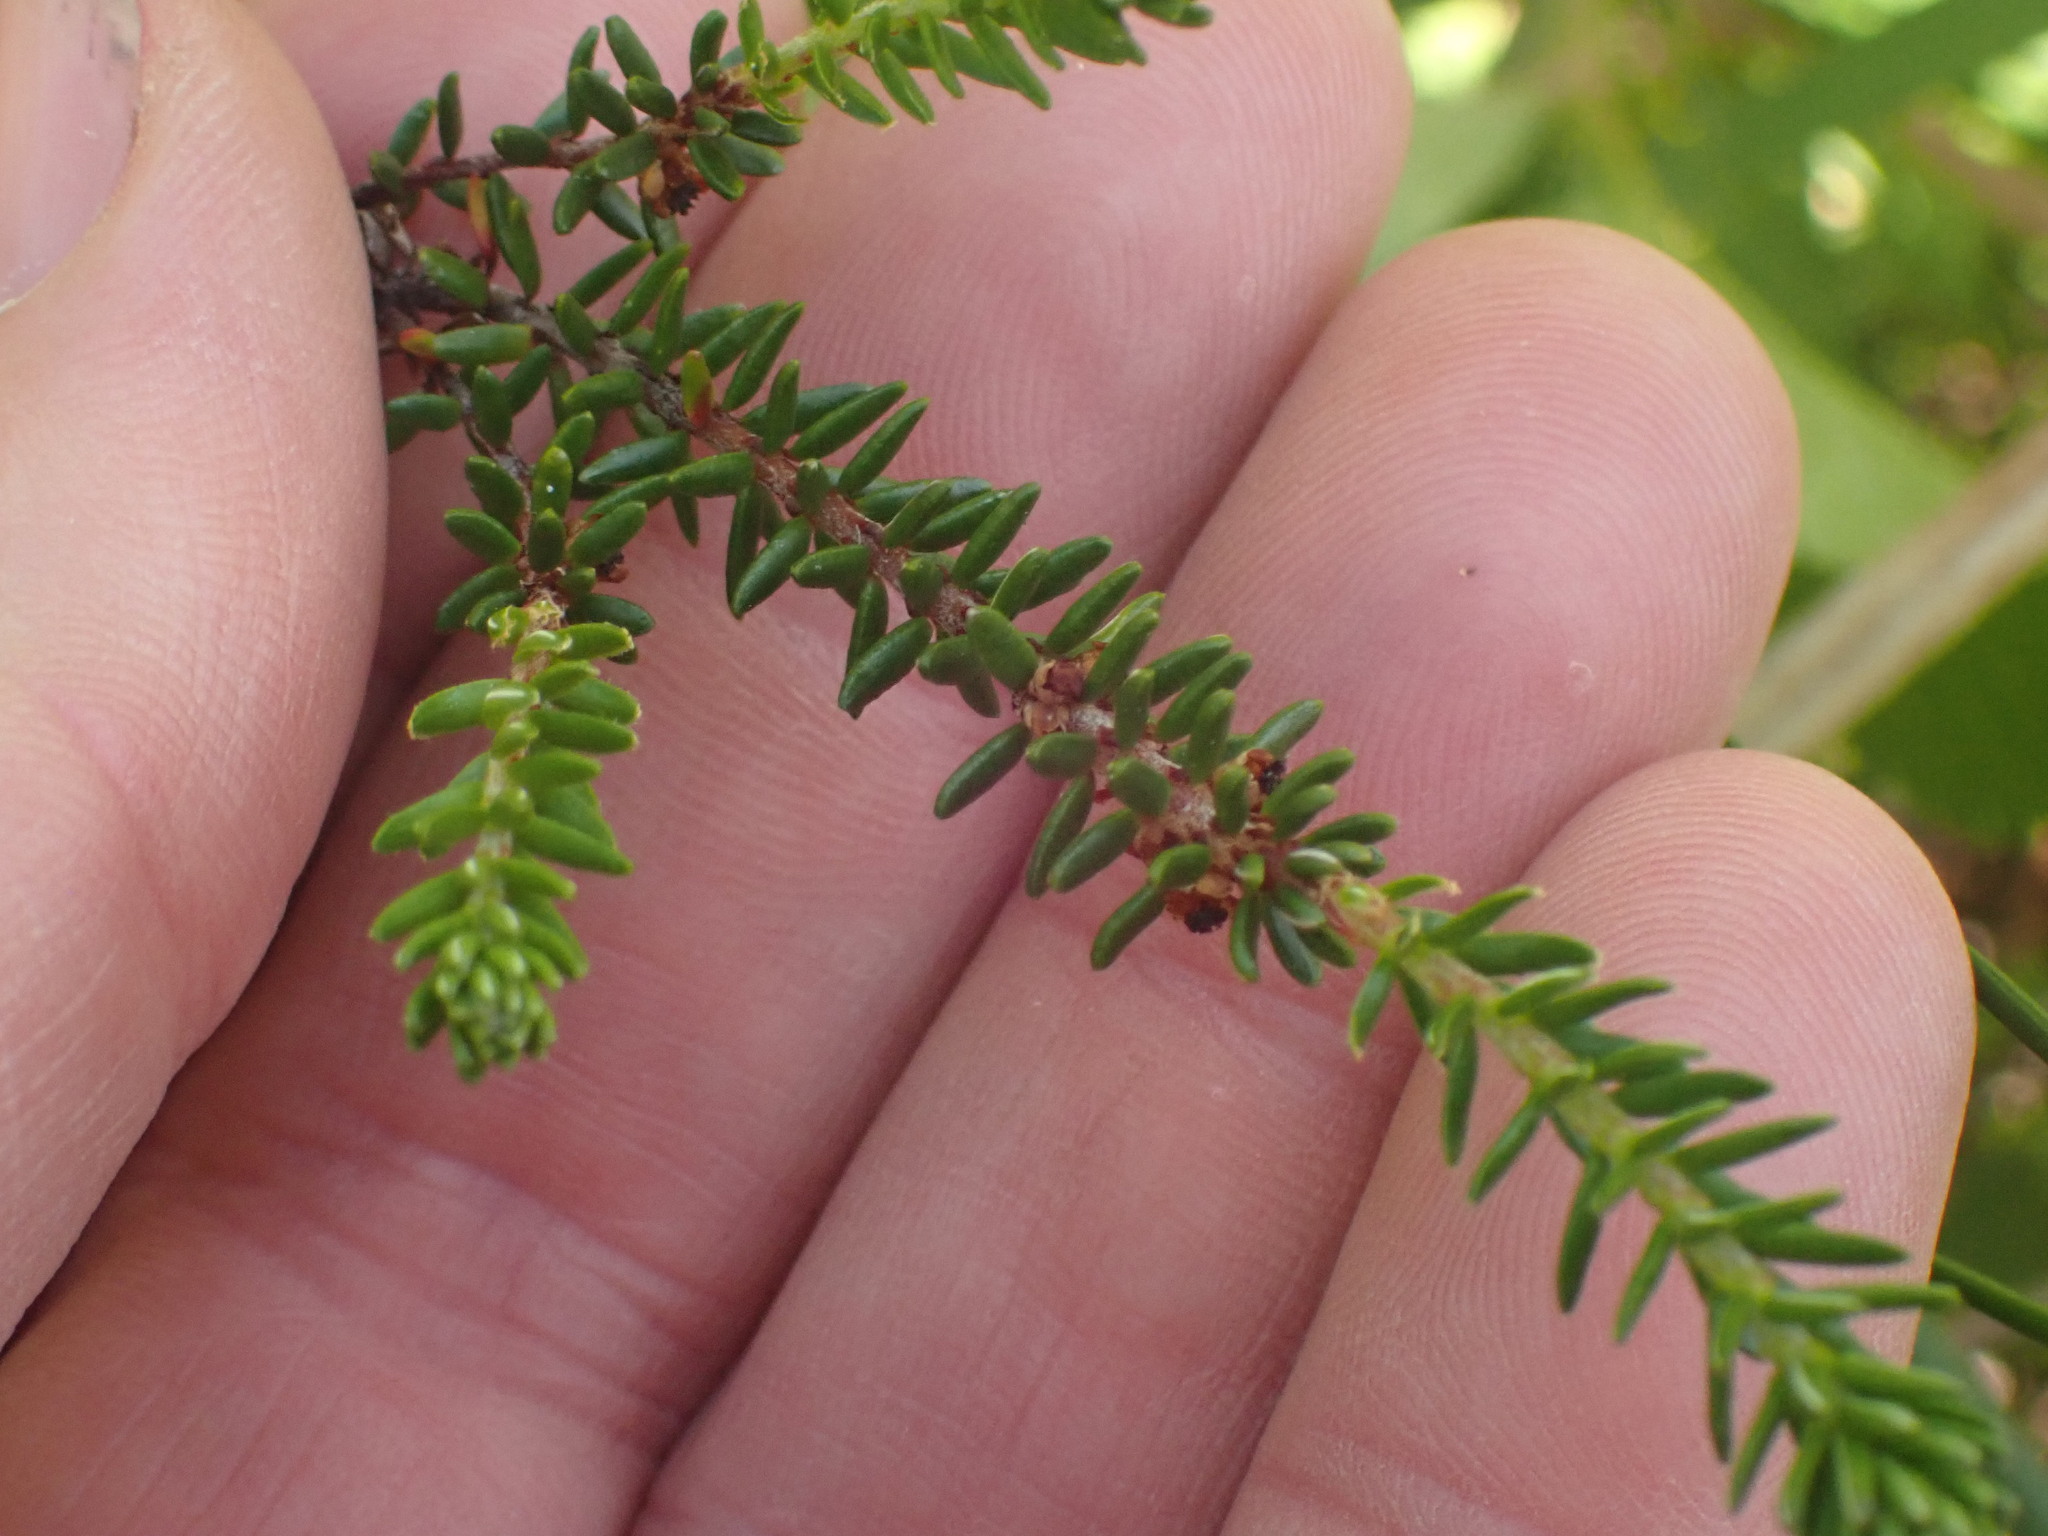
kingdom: Plantae
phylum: Tracheophyta
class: Magnoliopsida
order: Ericales
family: Ericaceae
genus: Empetrum
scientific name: Empetrum nigrum
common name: Black crowberry
